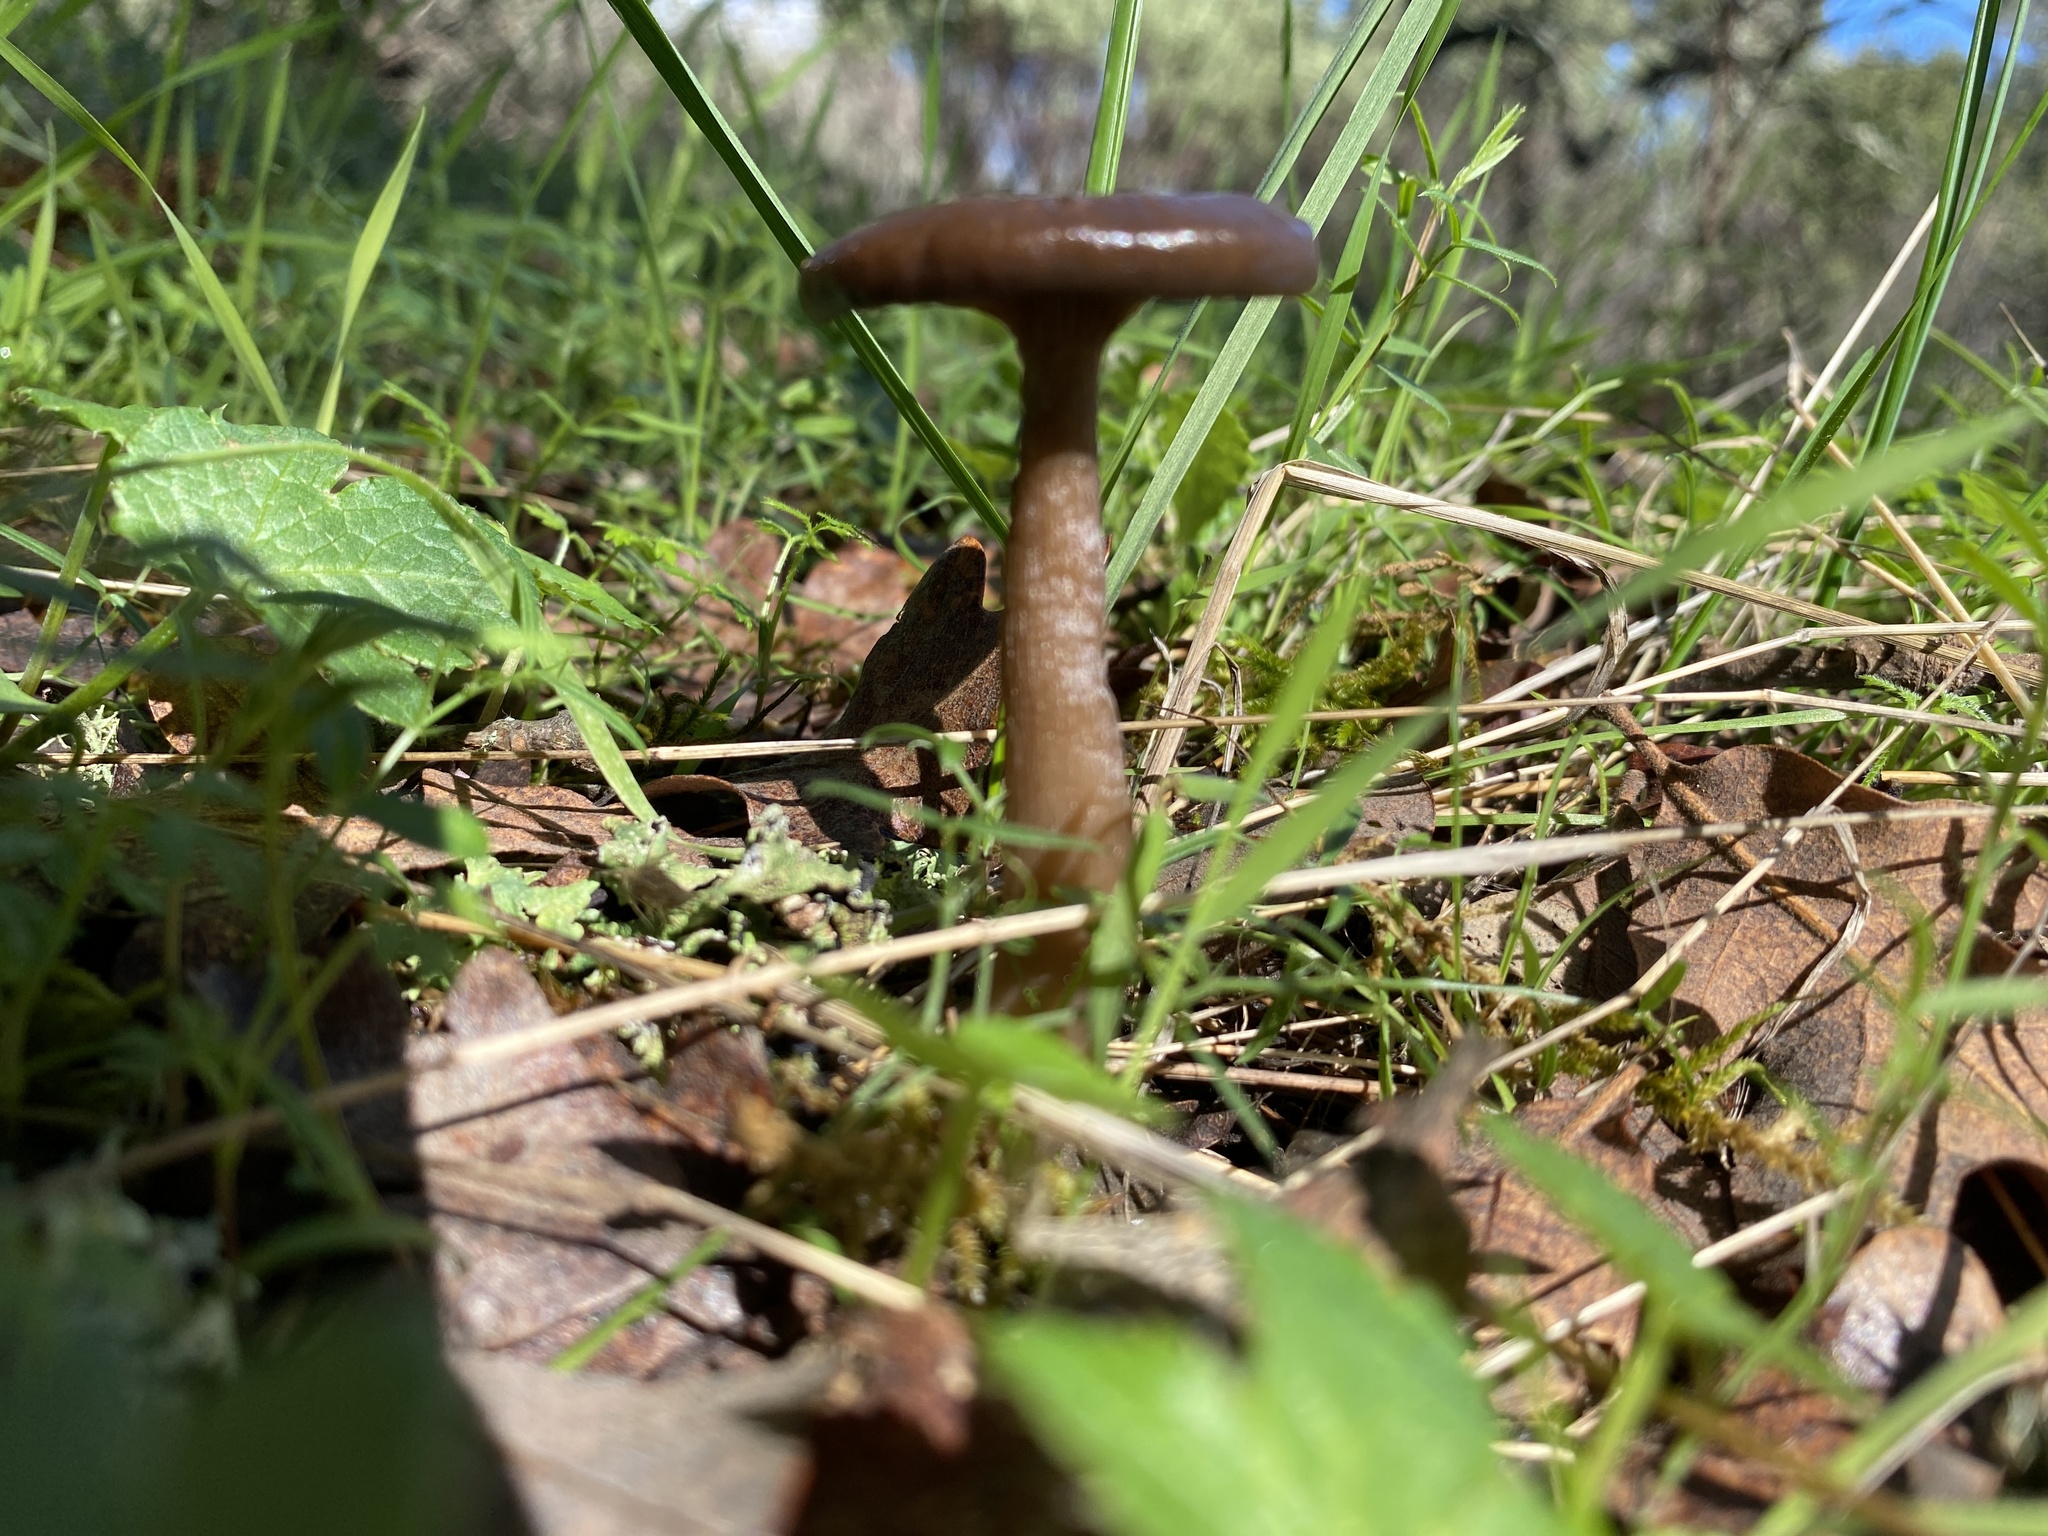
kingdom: Fungi
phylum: Basidiomycota
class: Agaricomycetes
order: Agaricales
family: Hygrophoraceae
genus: Arrhenia
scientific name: Arrhenia epichysium
